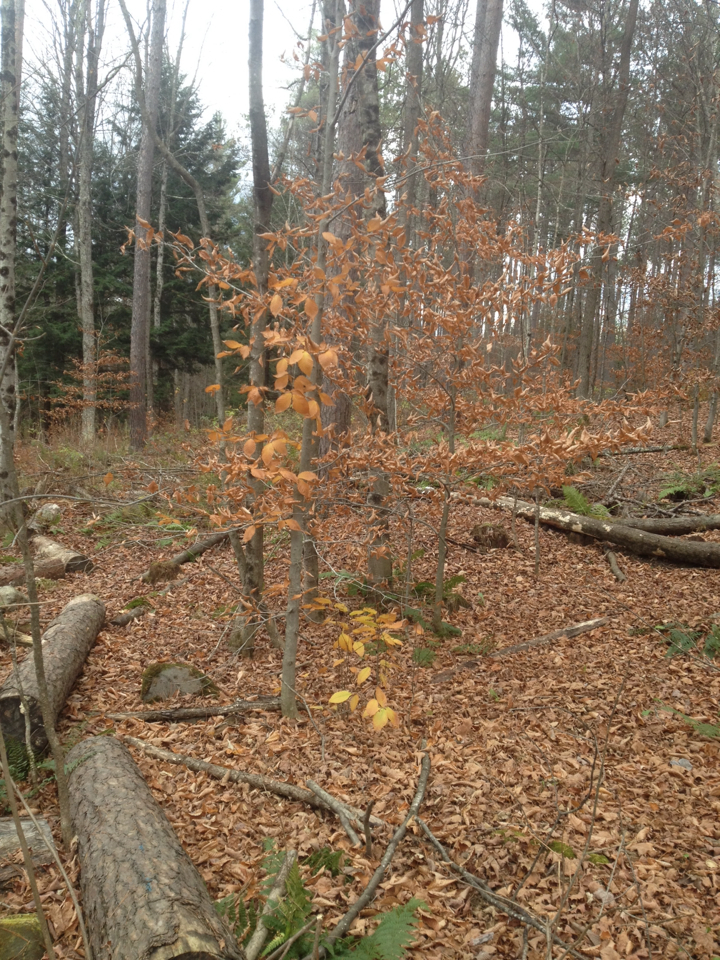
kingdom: Plantae
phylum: Tracheophyta
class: Magnoliopsida
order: Fagales
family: Fagaceae
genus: Fagus
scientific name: Fagus grandifolia
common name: American beech
